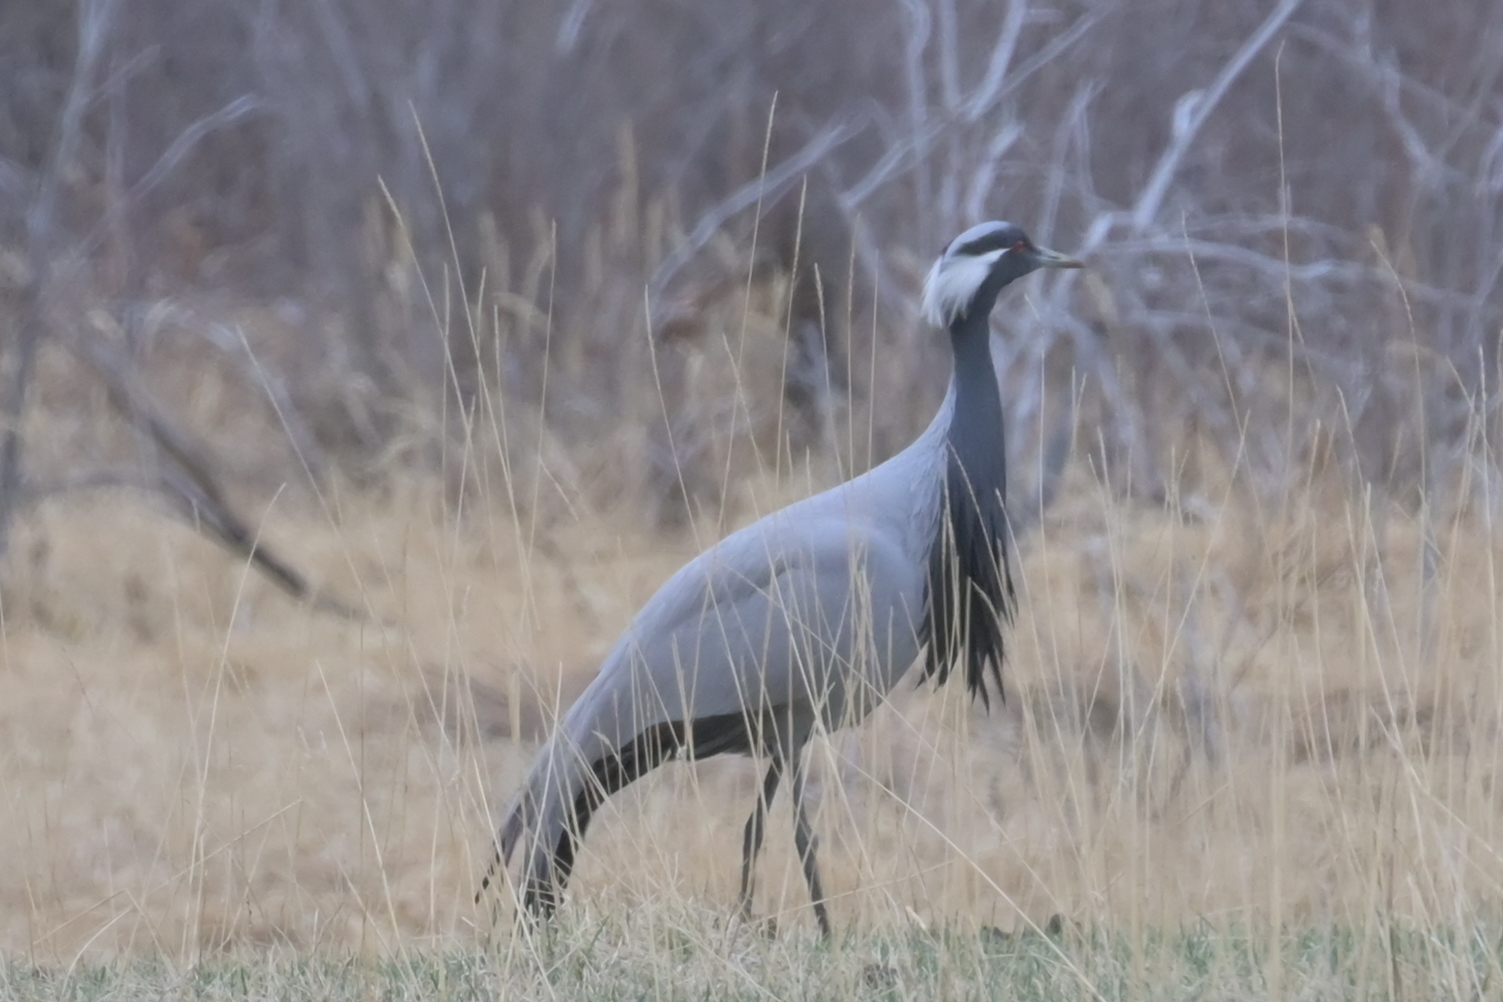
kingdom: Animalia
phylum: Chordata
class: Aves
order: Gruiformes
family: Gruidae
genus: Anthropoides
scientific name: Anthropoides virgo
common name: Demoiselle crane
